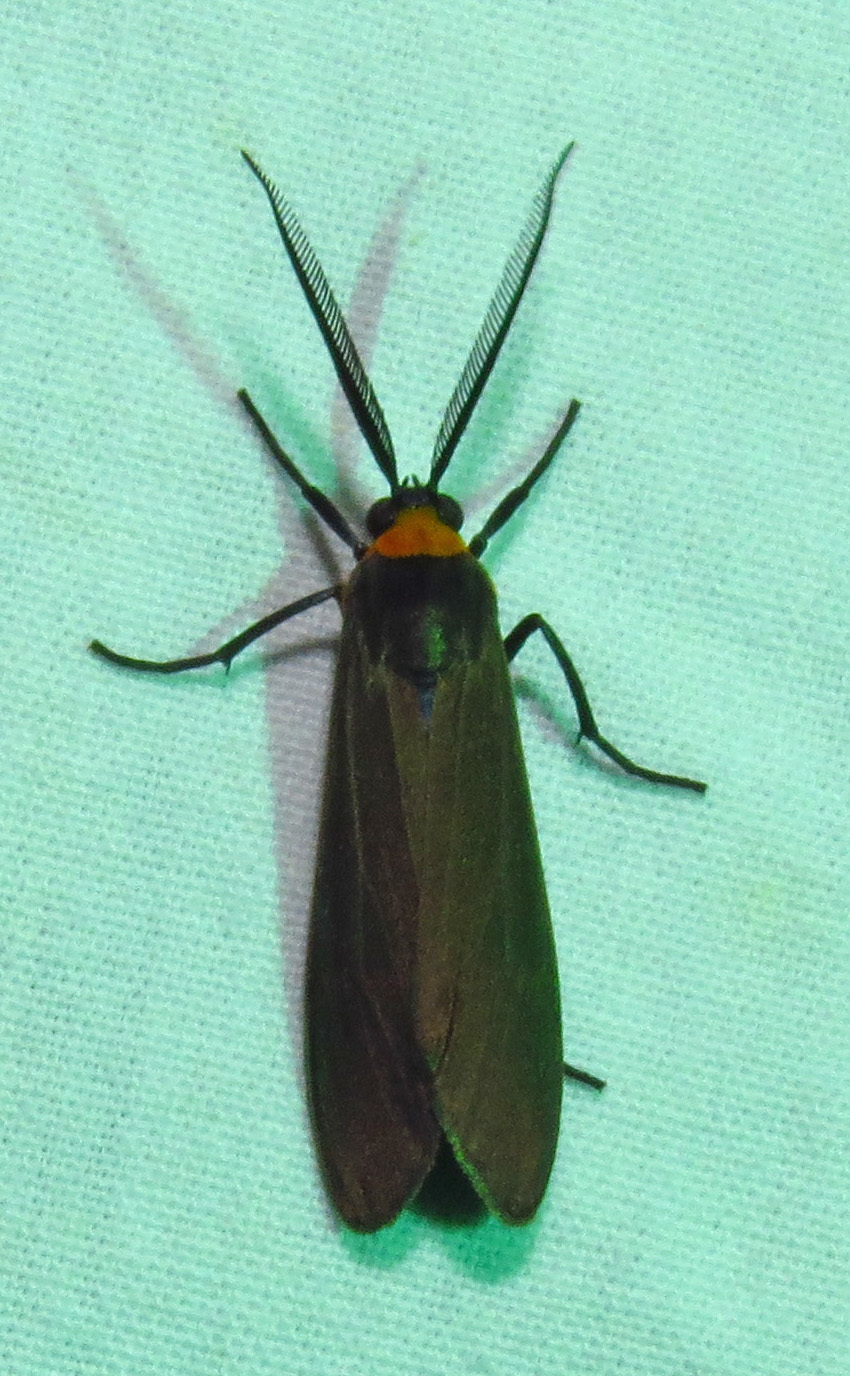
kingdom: Animalia
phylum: Arthropoda
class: Insecta
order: Lepidoptera
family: Erebidae
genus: Cisseps
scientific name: Cisseps fulvicollis
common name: Yellow-collared scape moth
